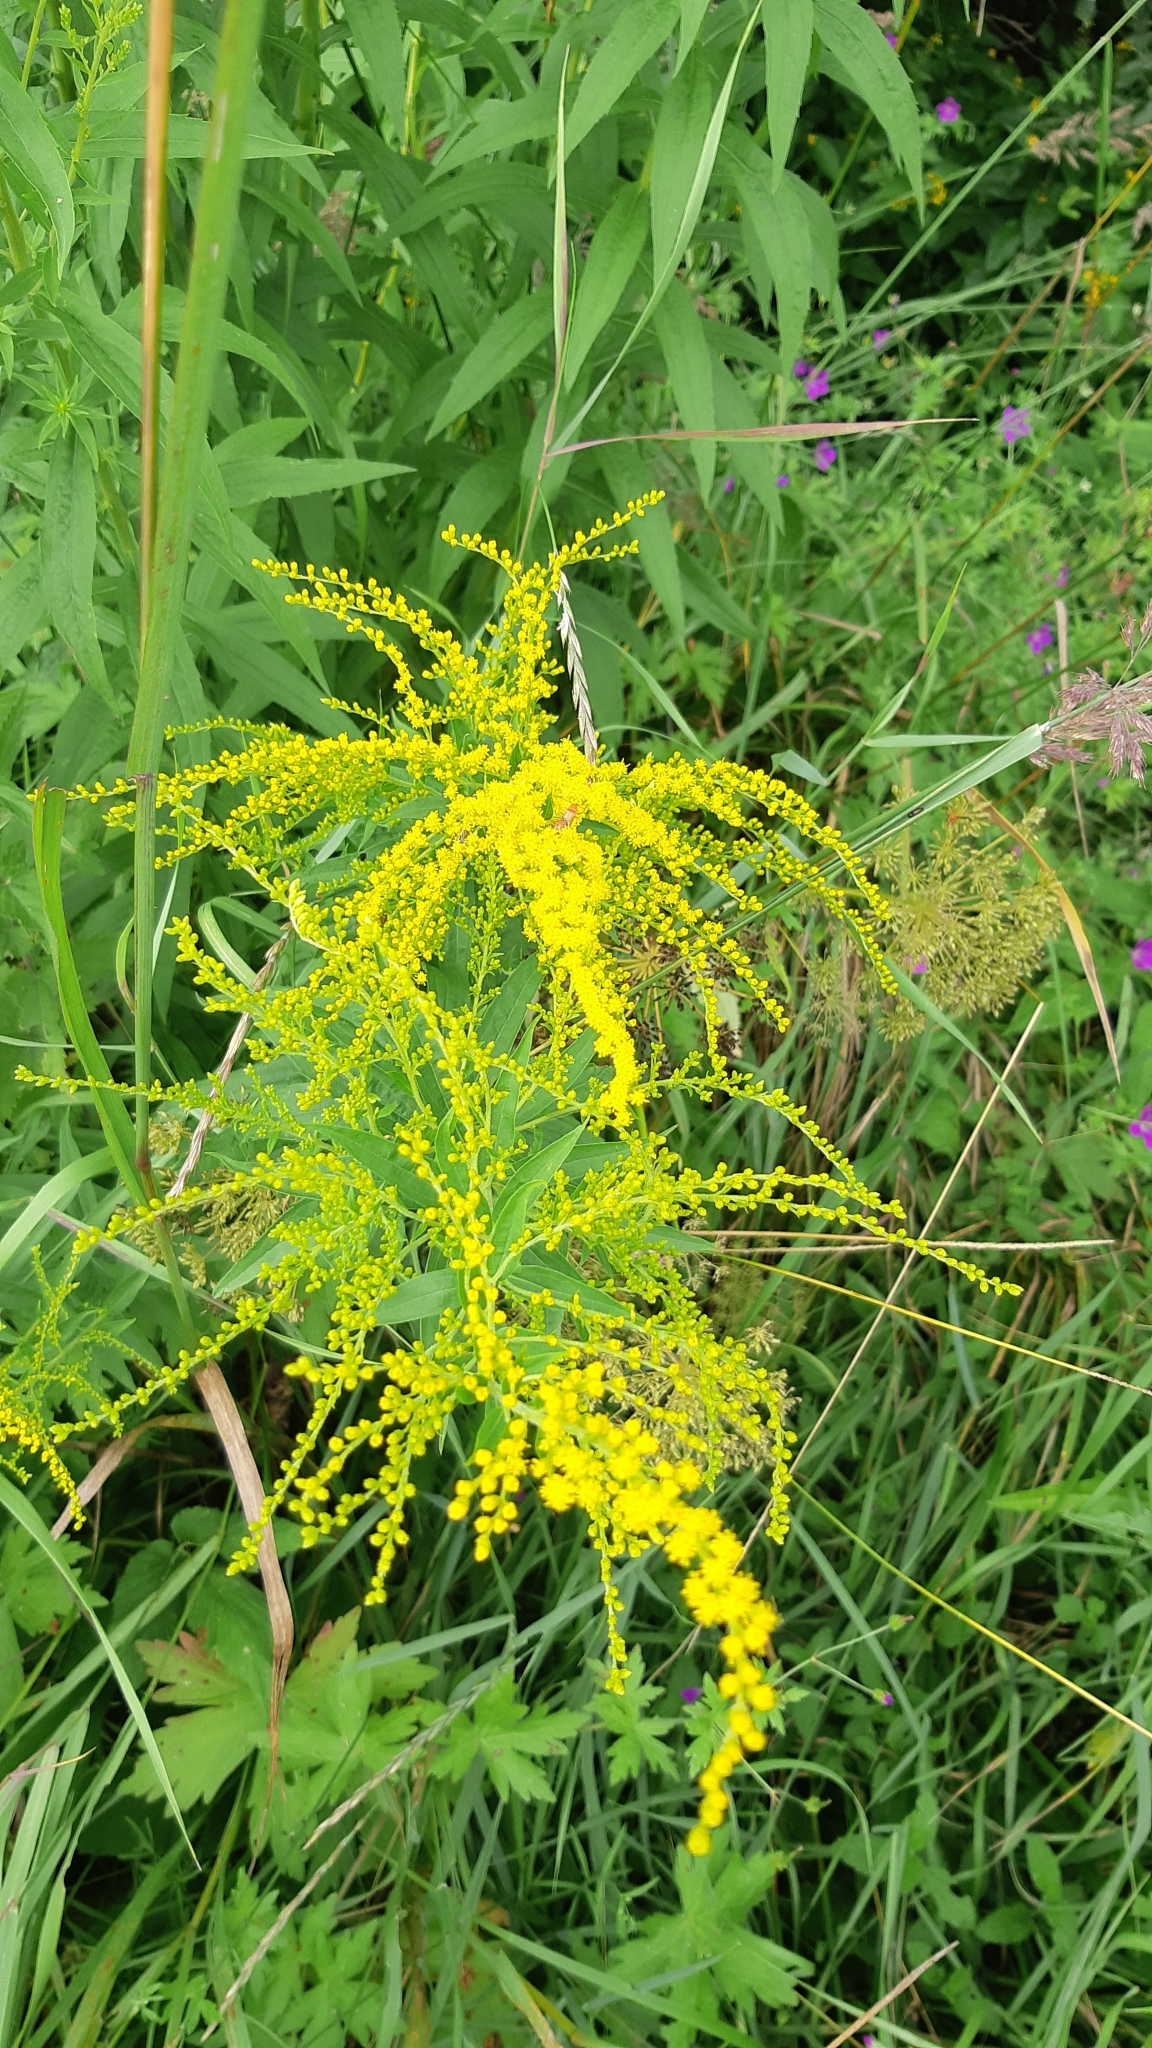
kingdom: Plantae
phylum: Tracheophyta
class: Magnoliopsida
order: Asterales
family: Asteraceae
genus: Solidago
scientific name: Solidago canadensis
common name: Canada goldenrod
